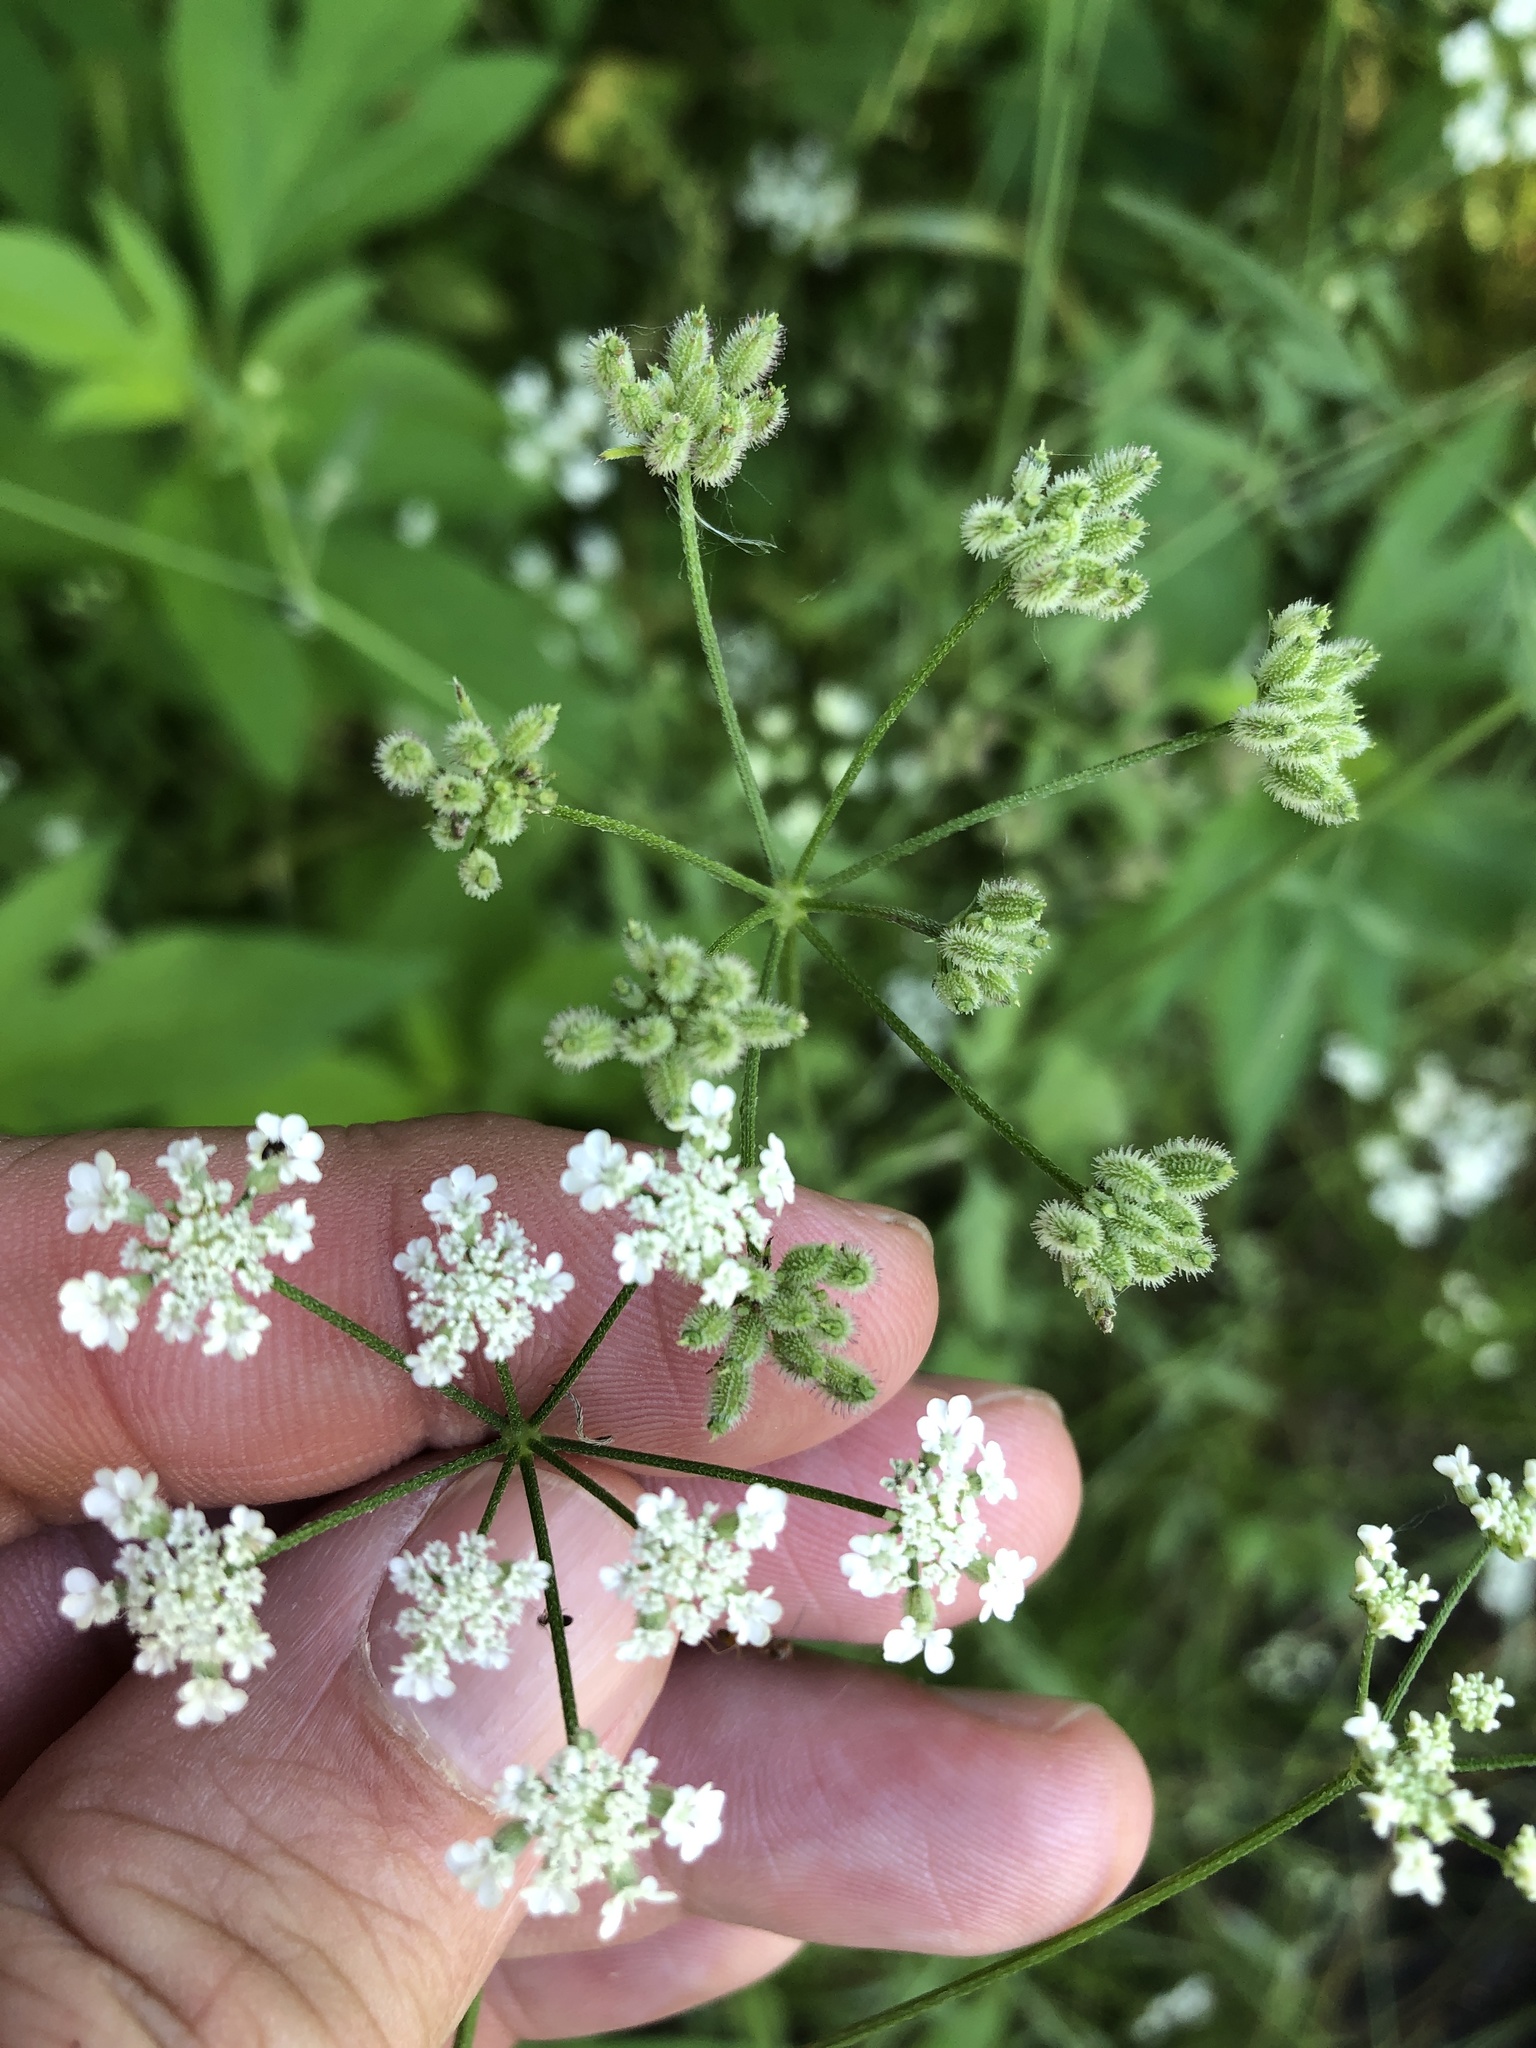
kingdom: Plantae
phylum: Tracheophyta
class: Magnoliopsida
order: Apiales
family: Apiaceae
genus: Torilis
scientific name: Torilis arvensis
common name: Spreading hedge-parsley
